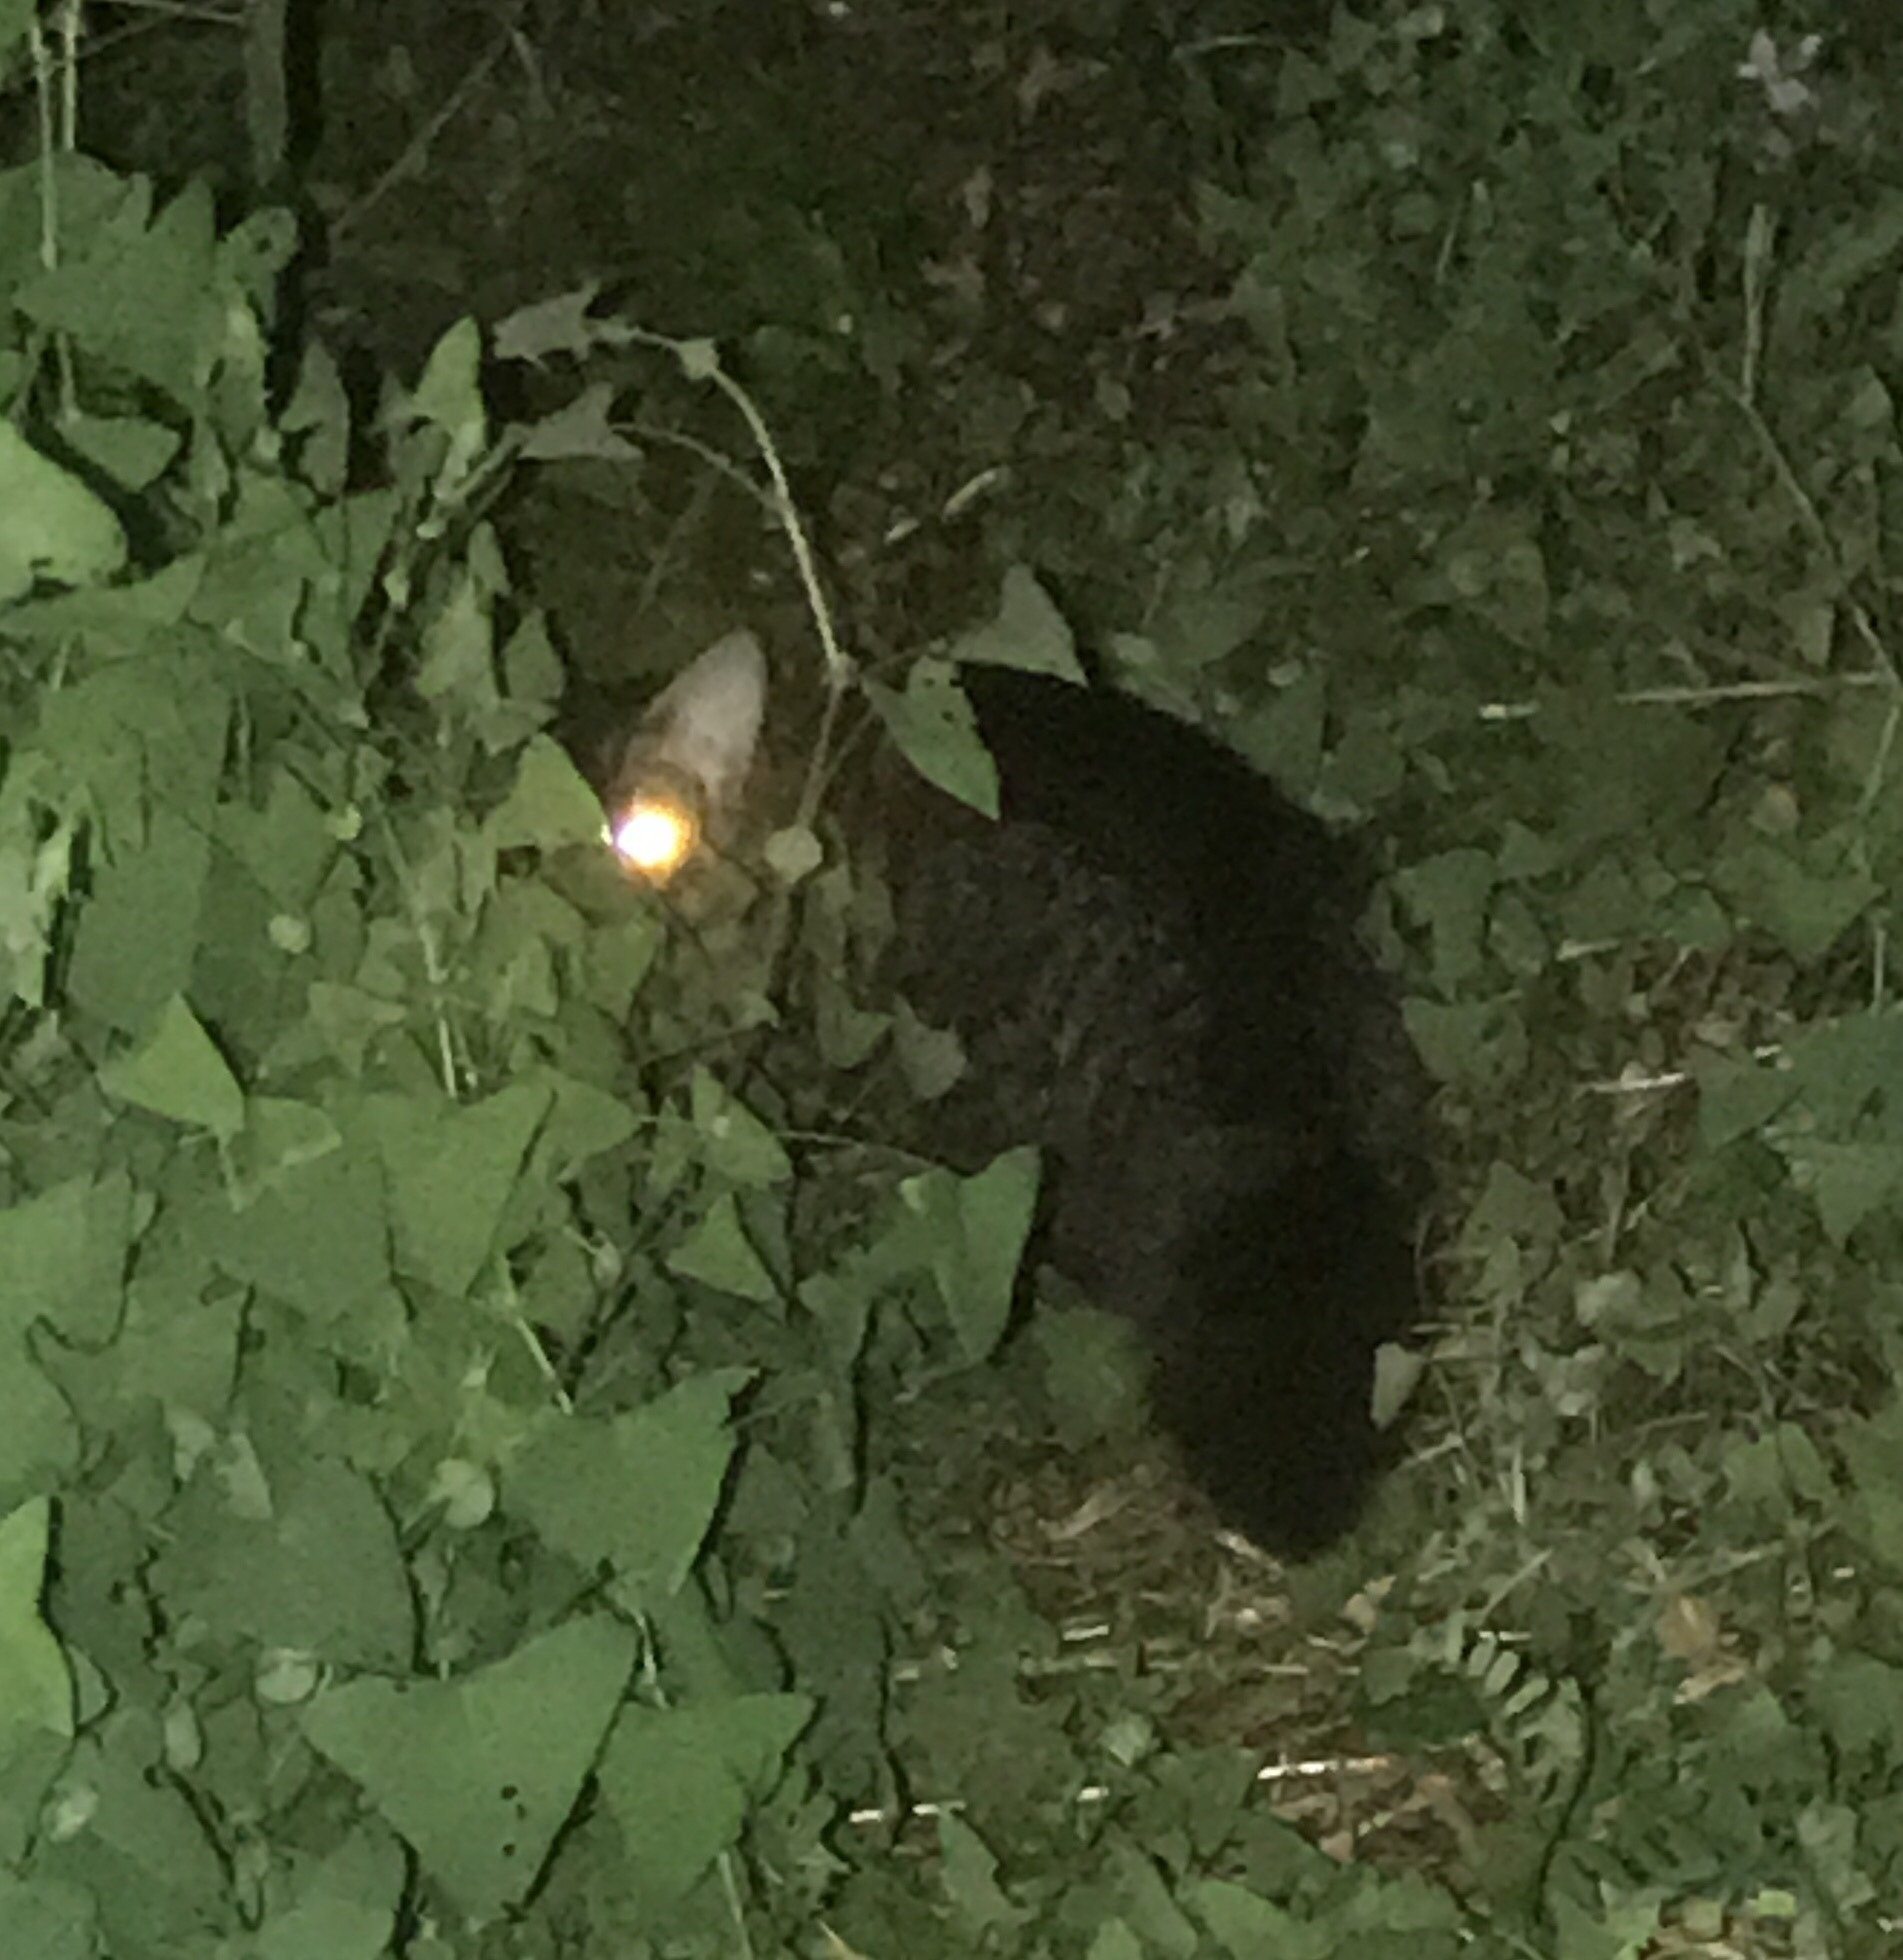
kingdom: Animalia
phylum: Chordata
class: Mammalia
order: Carnivora
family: Felidae
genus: Felis
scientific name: Felis catus
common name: Domestic cat
